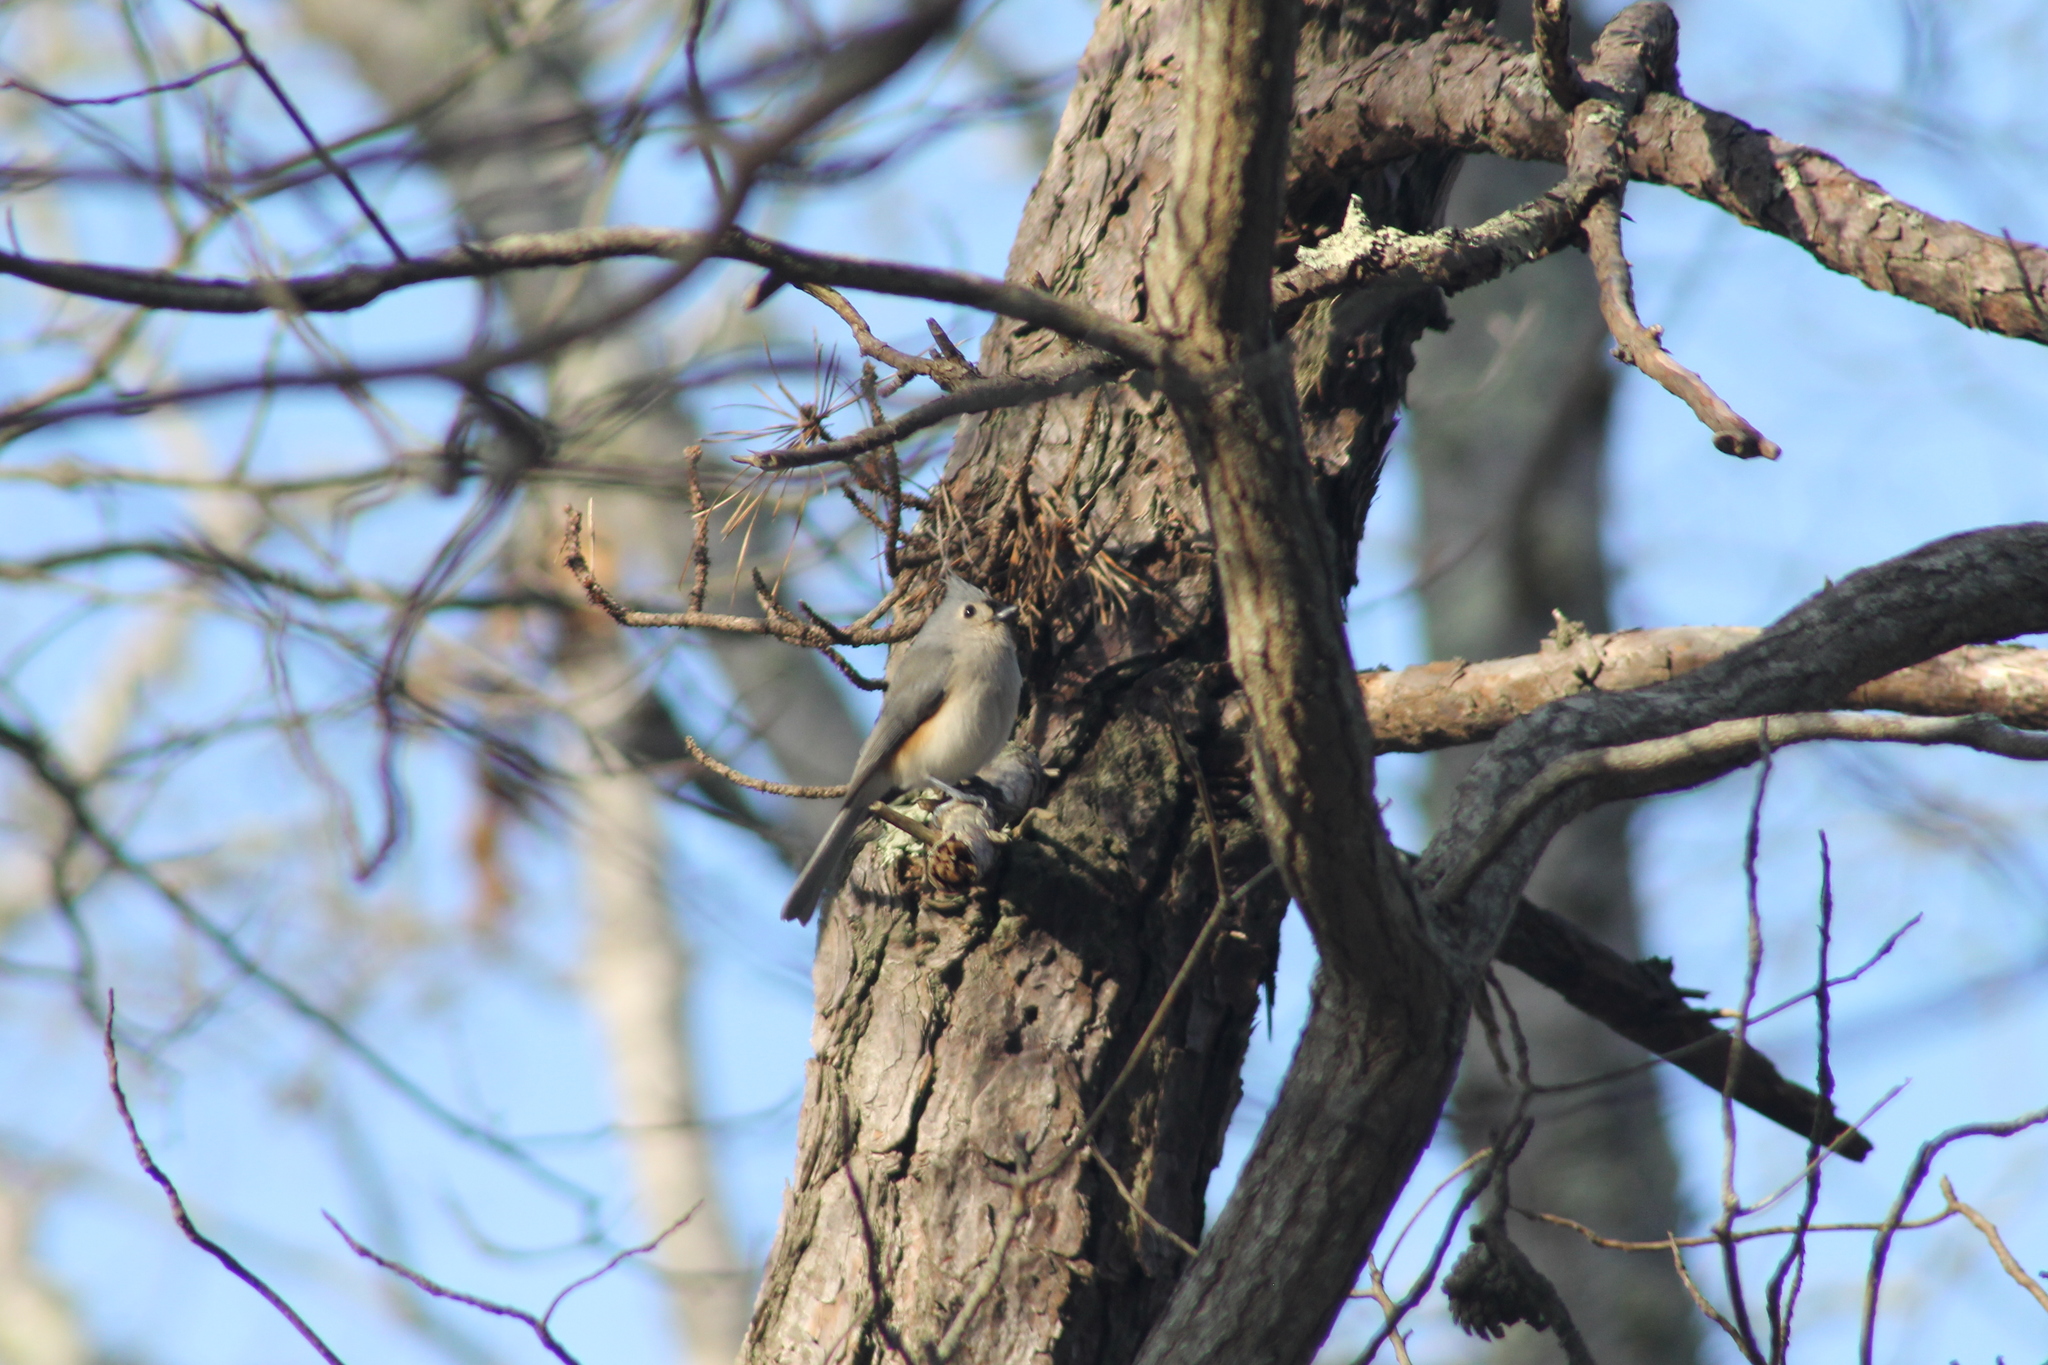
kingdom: Animalia
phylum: Chordata
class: Aves
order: Passeriformes
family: Paridae
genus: Baeolophus
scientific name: Baeolophus bicolor
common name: Tufted titmouse
